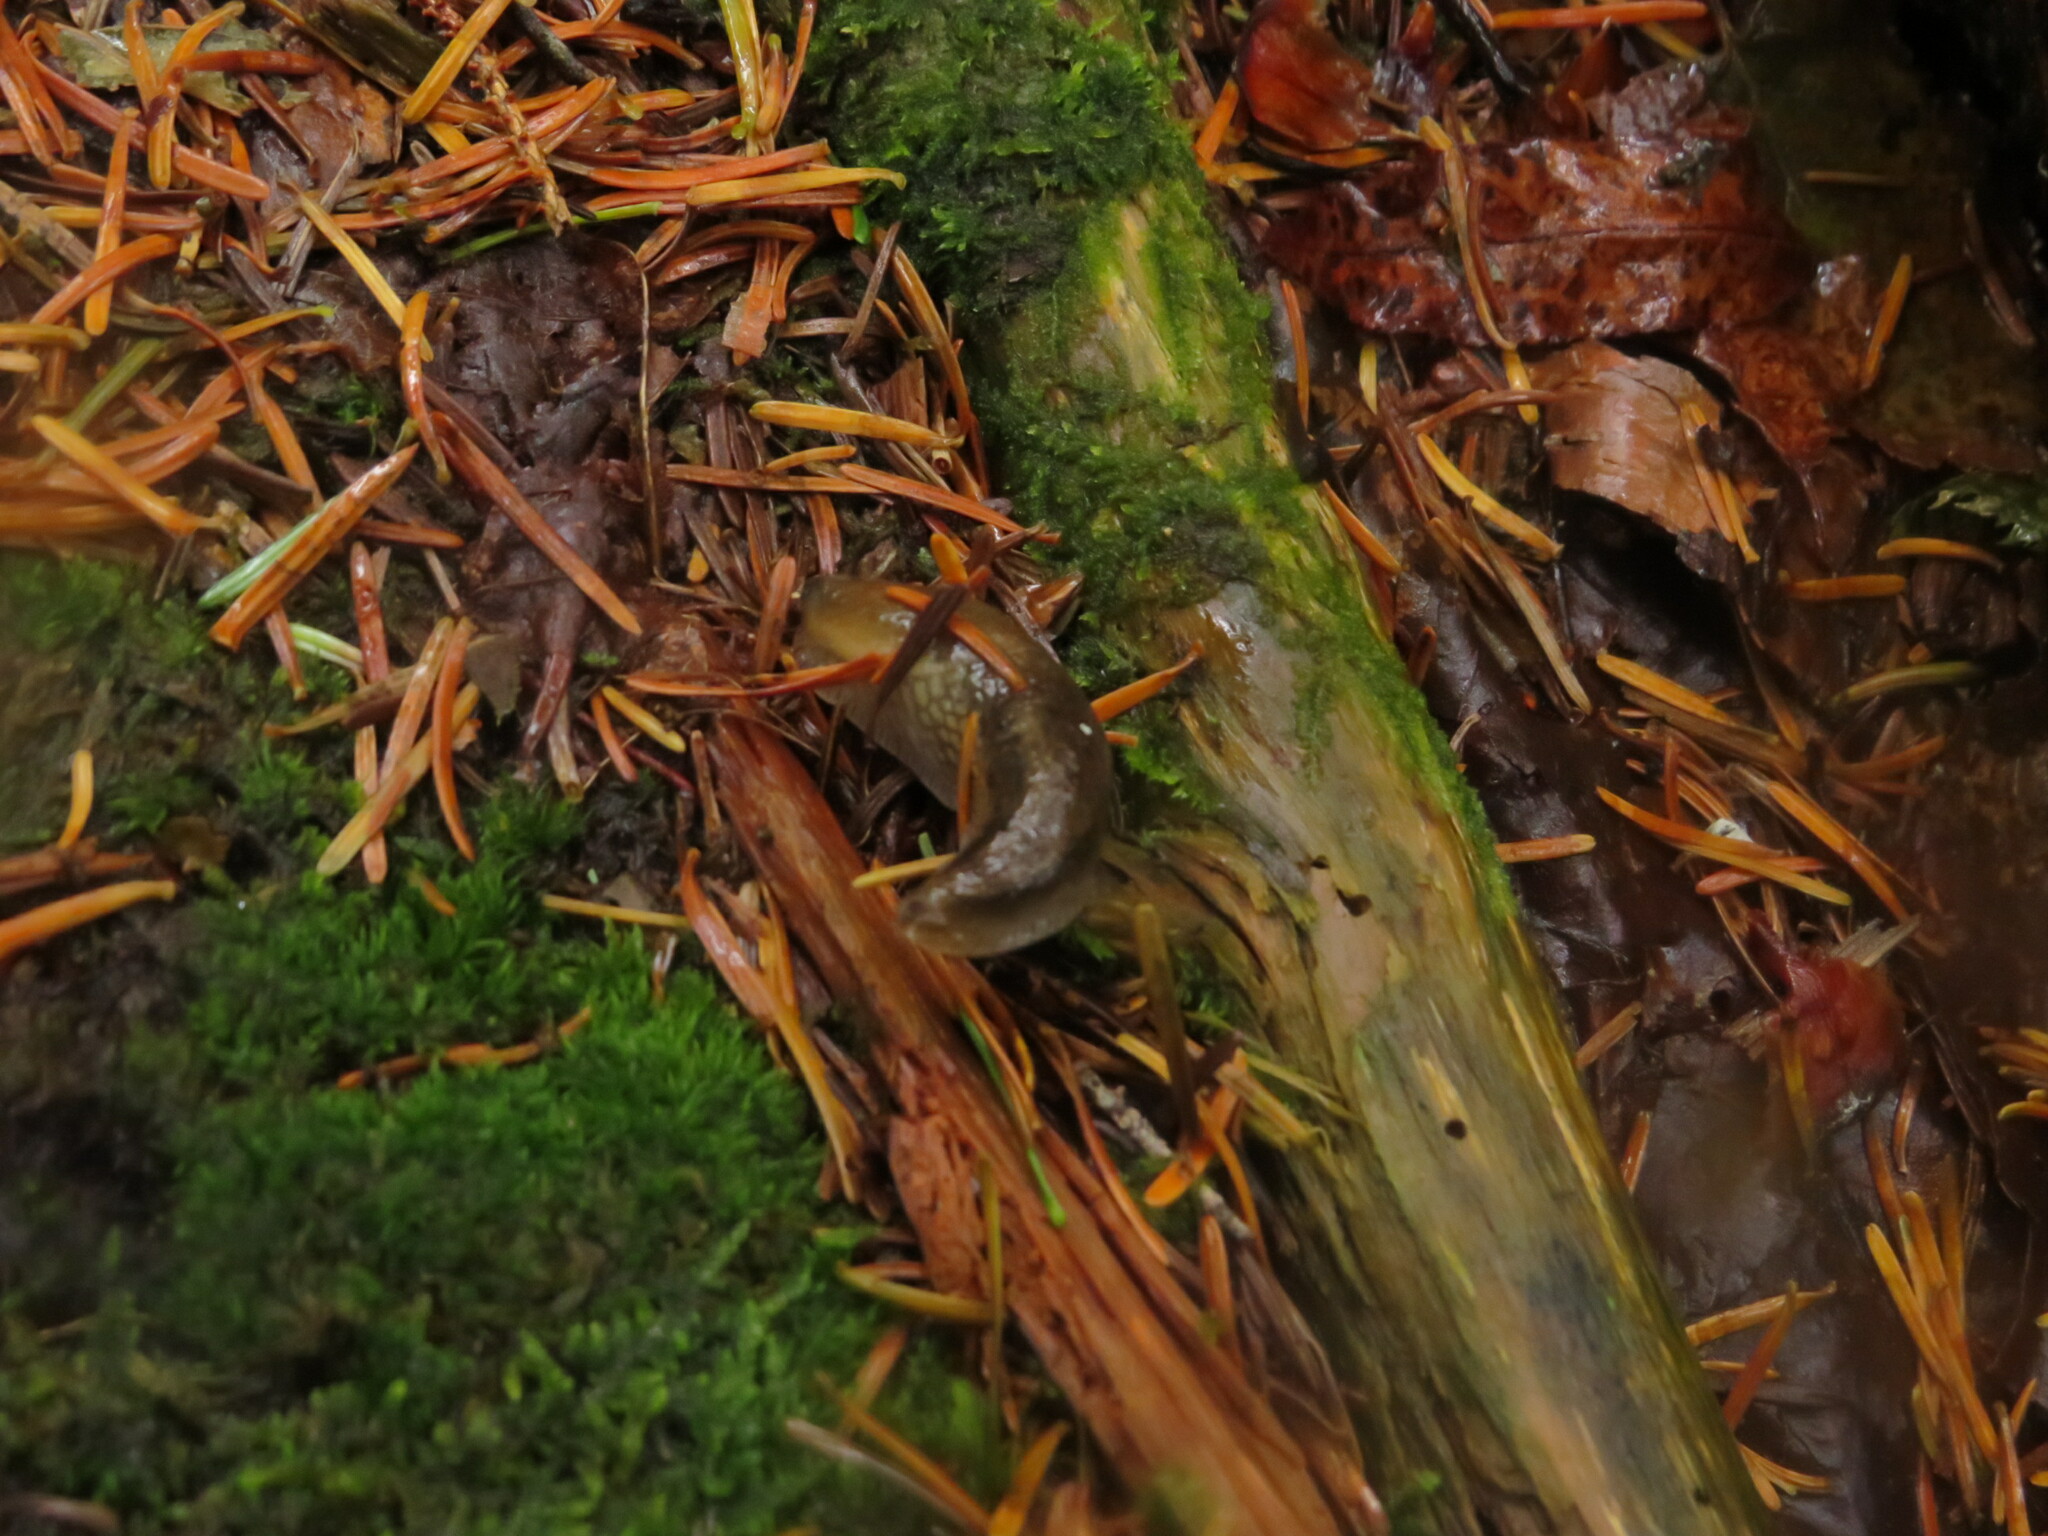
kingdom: Animalia
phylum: Mollusca
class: Gastropoda
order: Stylommatophora
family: Arionidae
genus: Mesarion
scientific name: Mesarion
